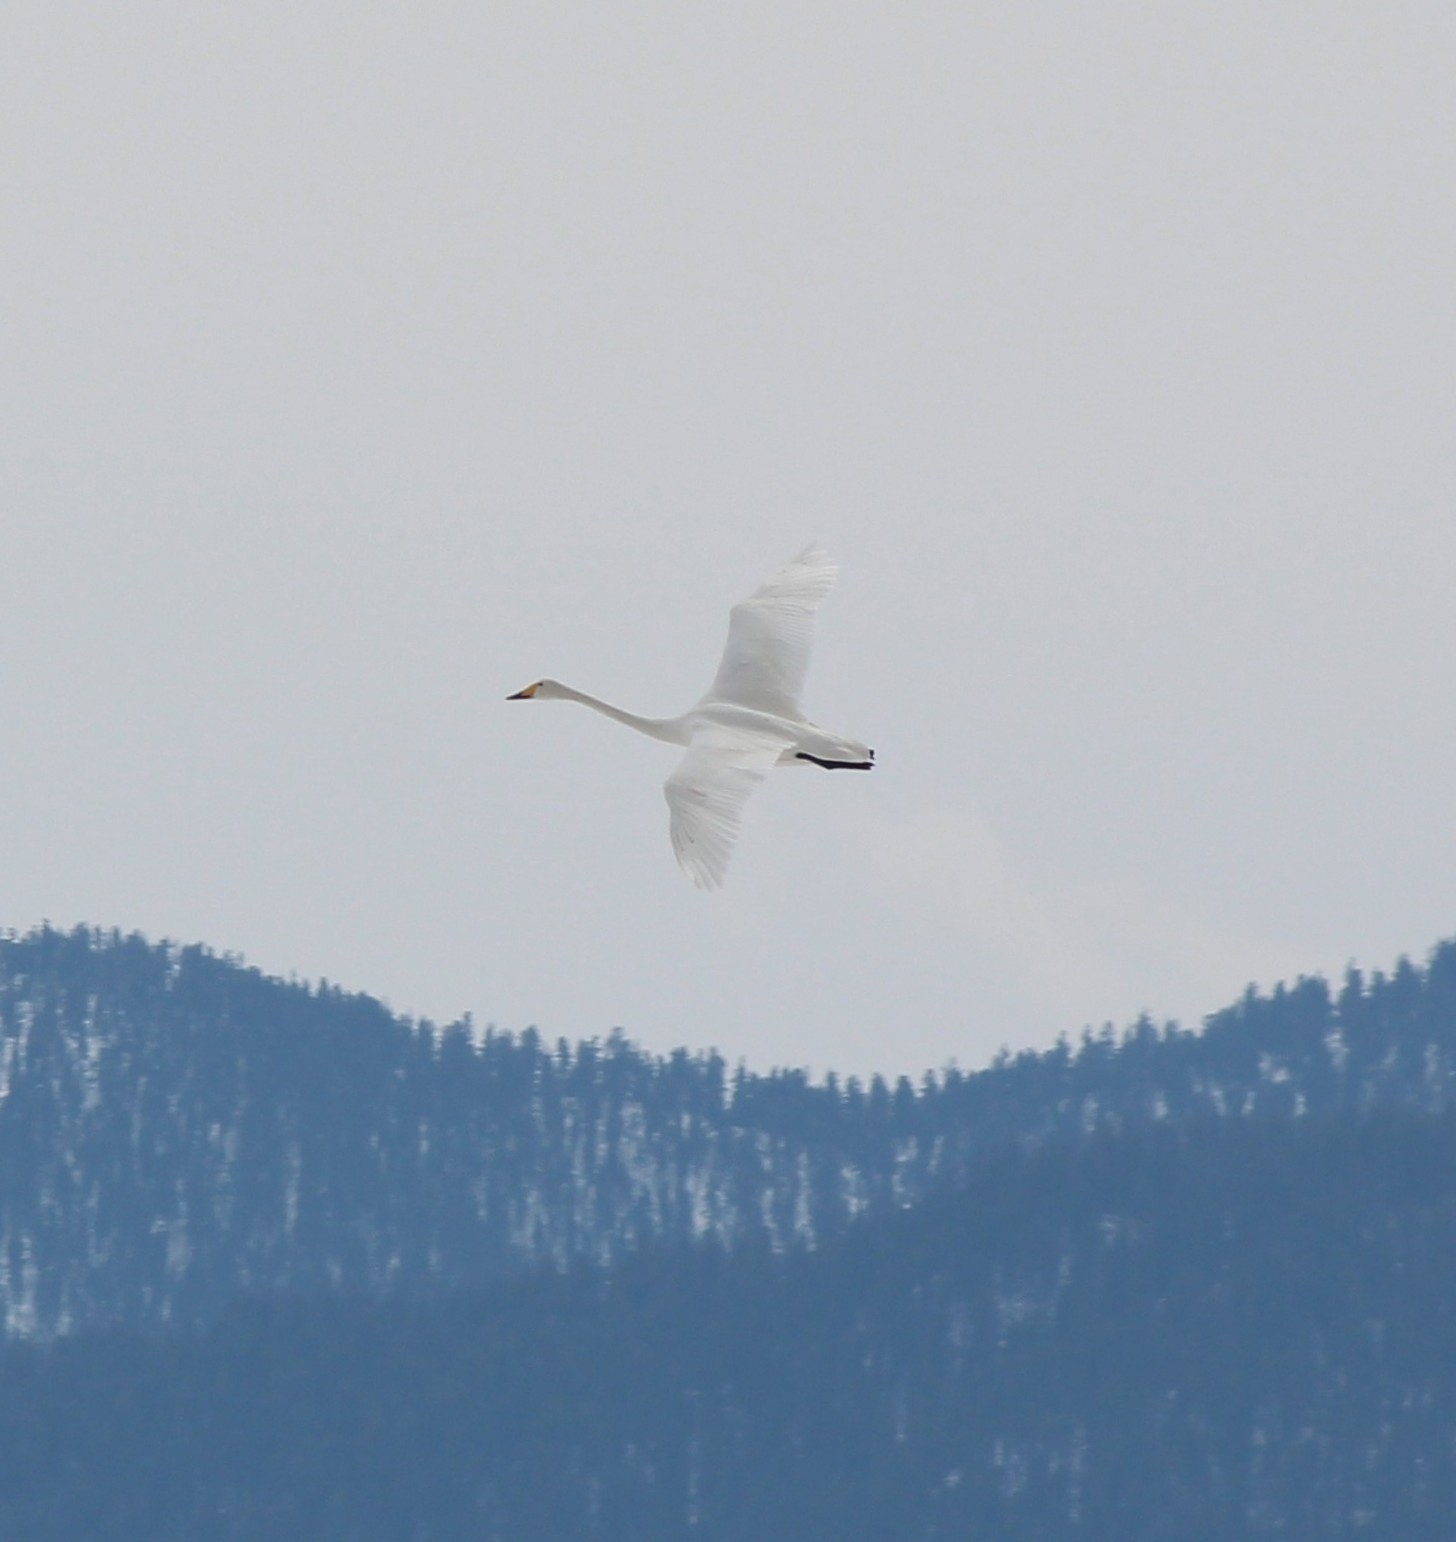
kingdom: Animalia
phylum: Chordata
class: Aves
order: Anseriformes
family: Anatidae
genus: Cygnus
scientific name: Cygnus cygnus
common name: Whooper swan
